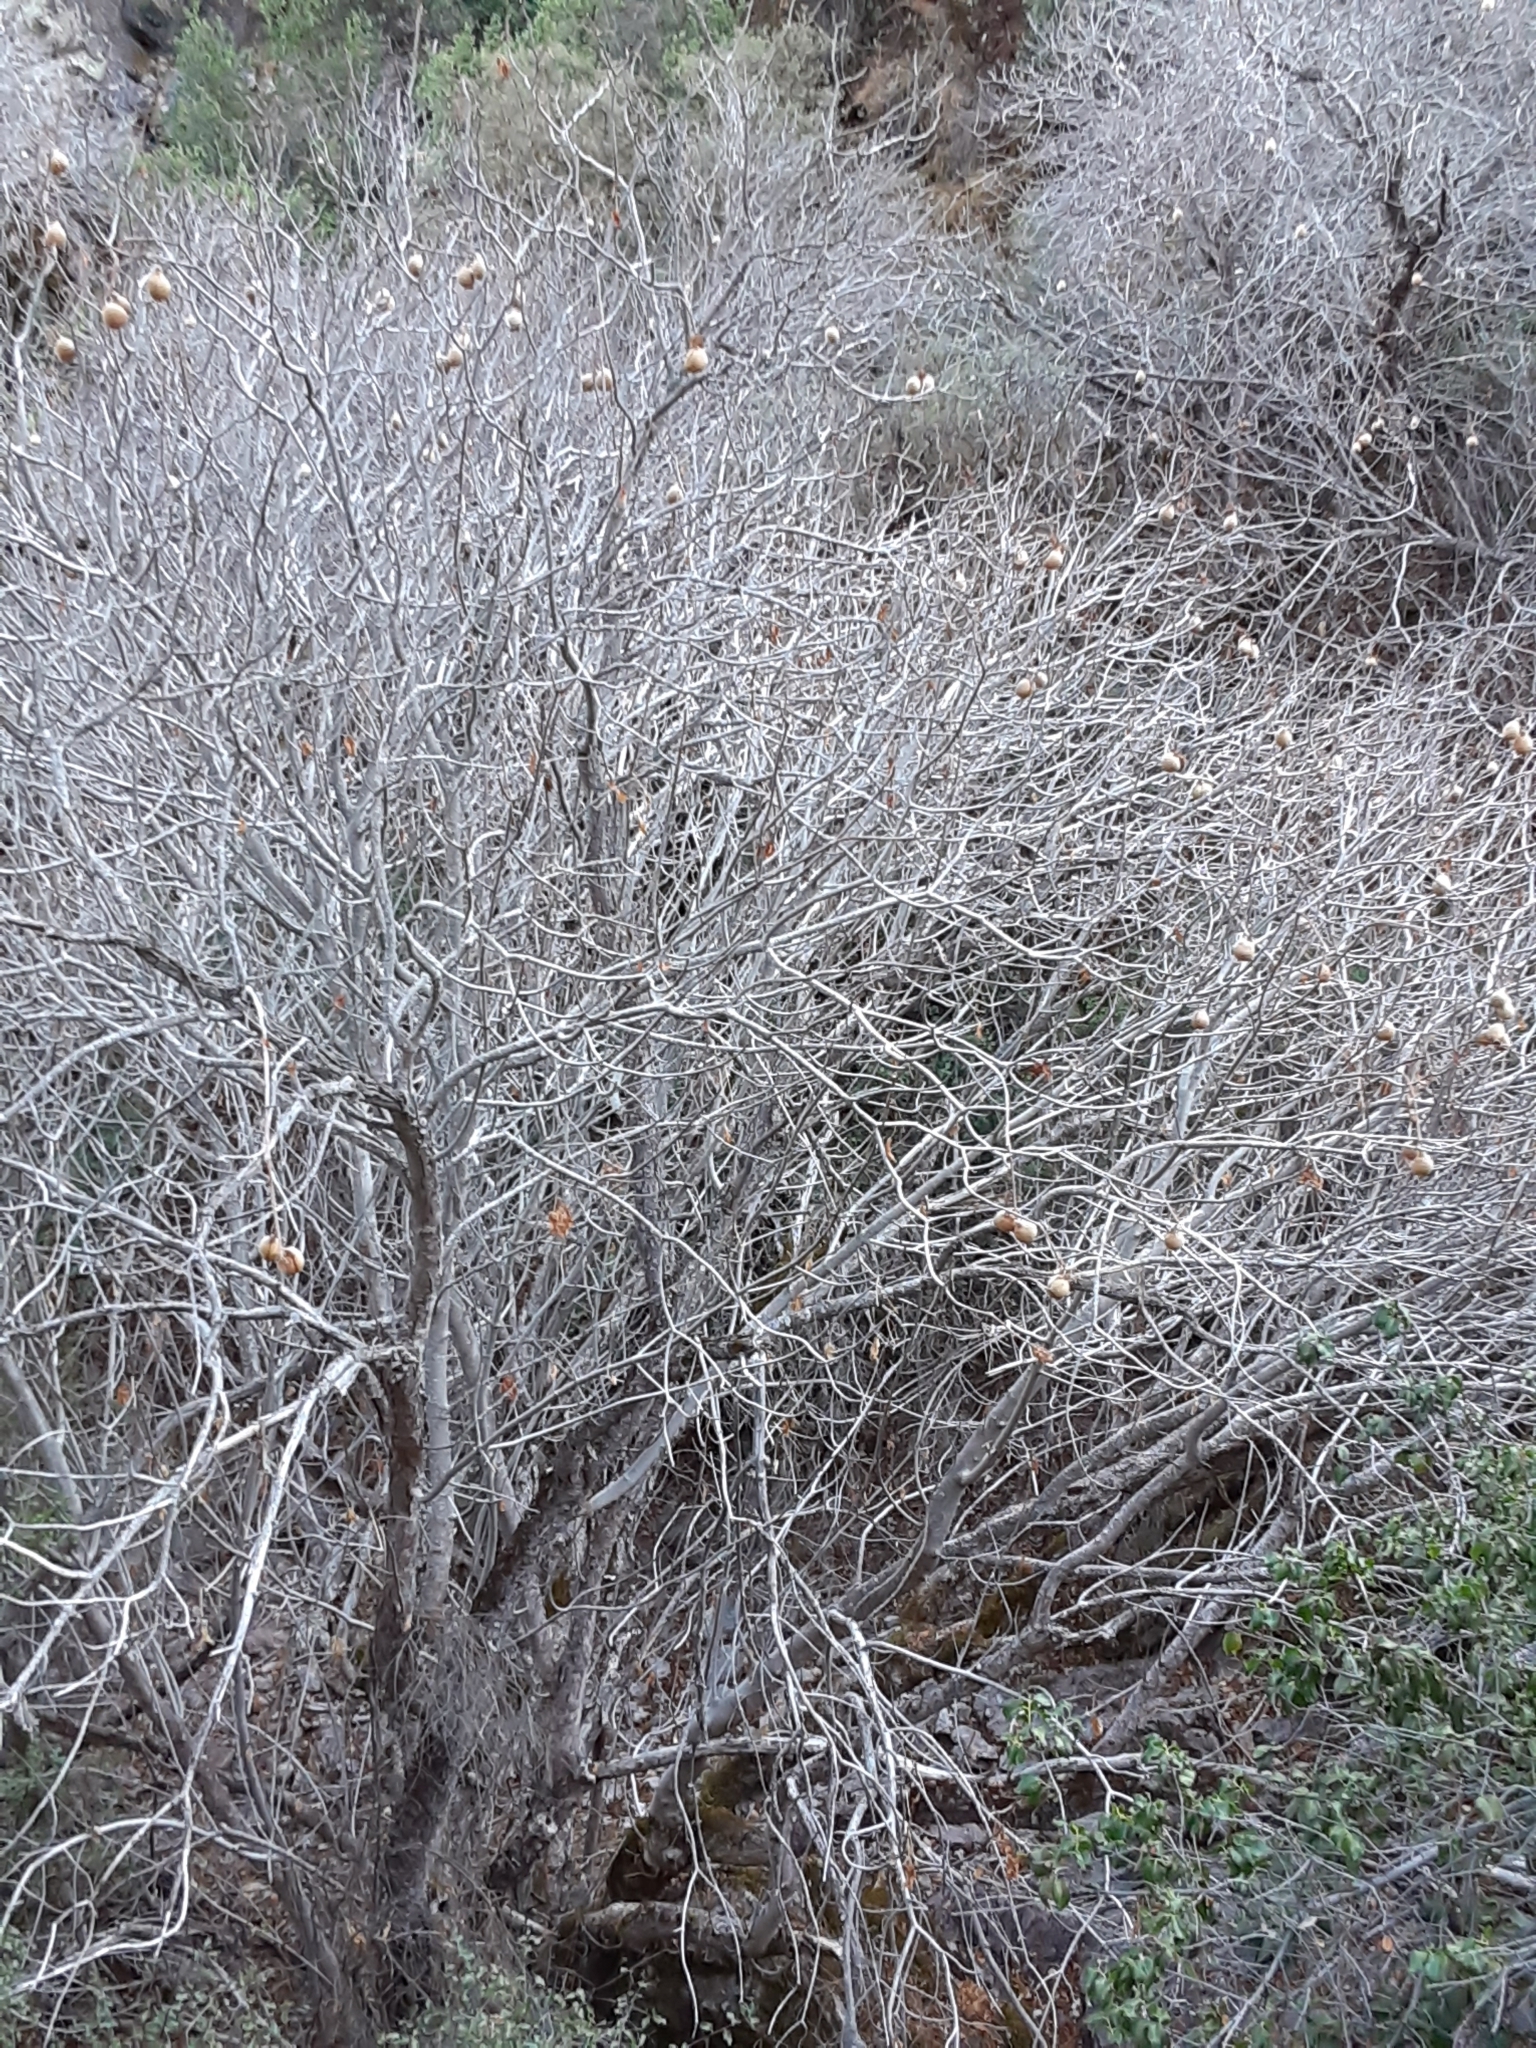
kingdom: Plantae
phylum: Tracheophyta
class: Magnoliopsida
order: Sapindales
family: Sapindaceae
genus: Aesculus
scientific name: Aesculus californica
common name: California buckeye
